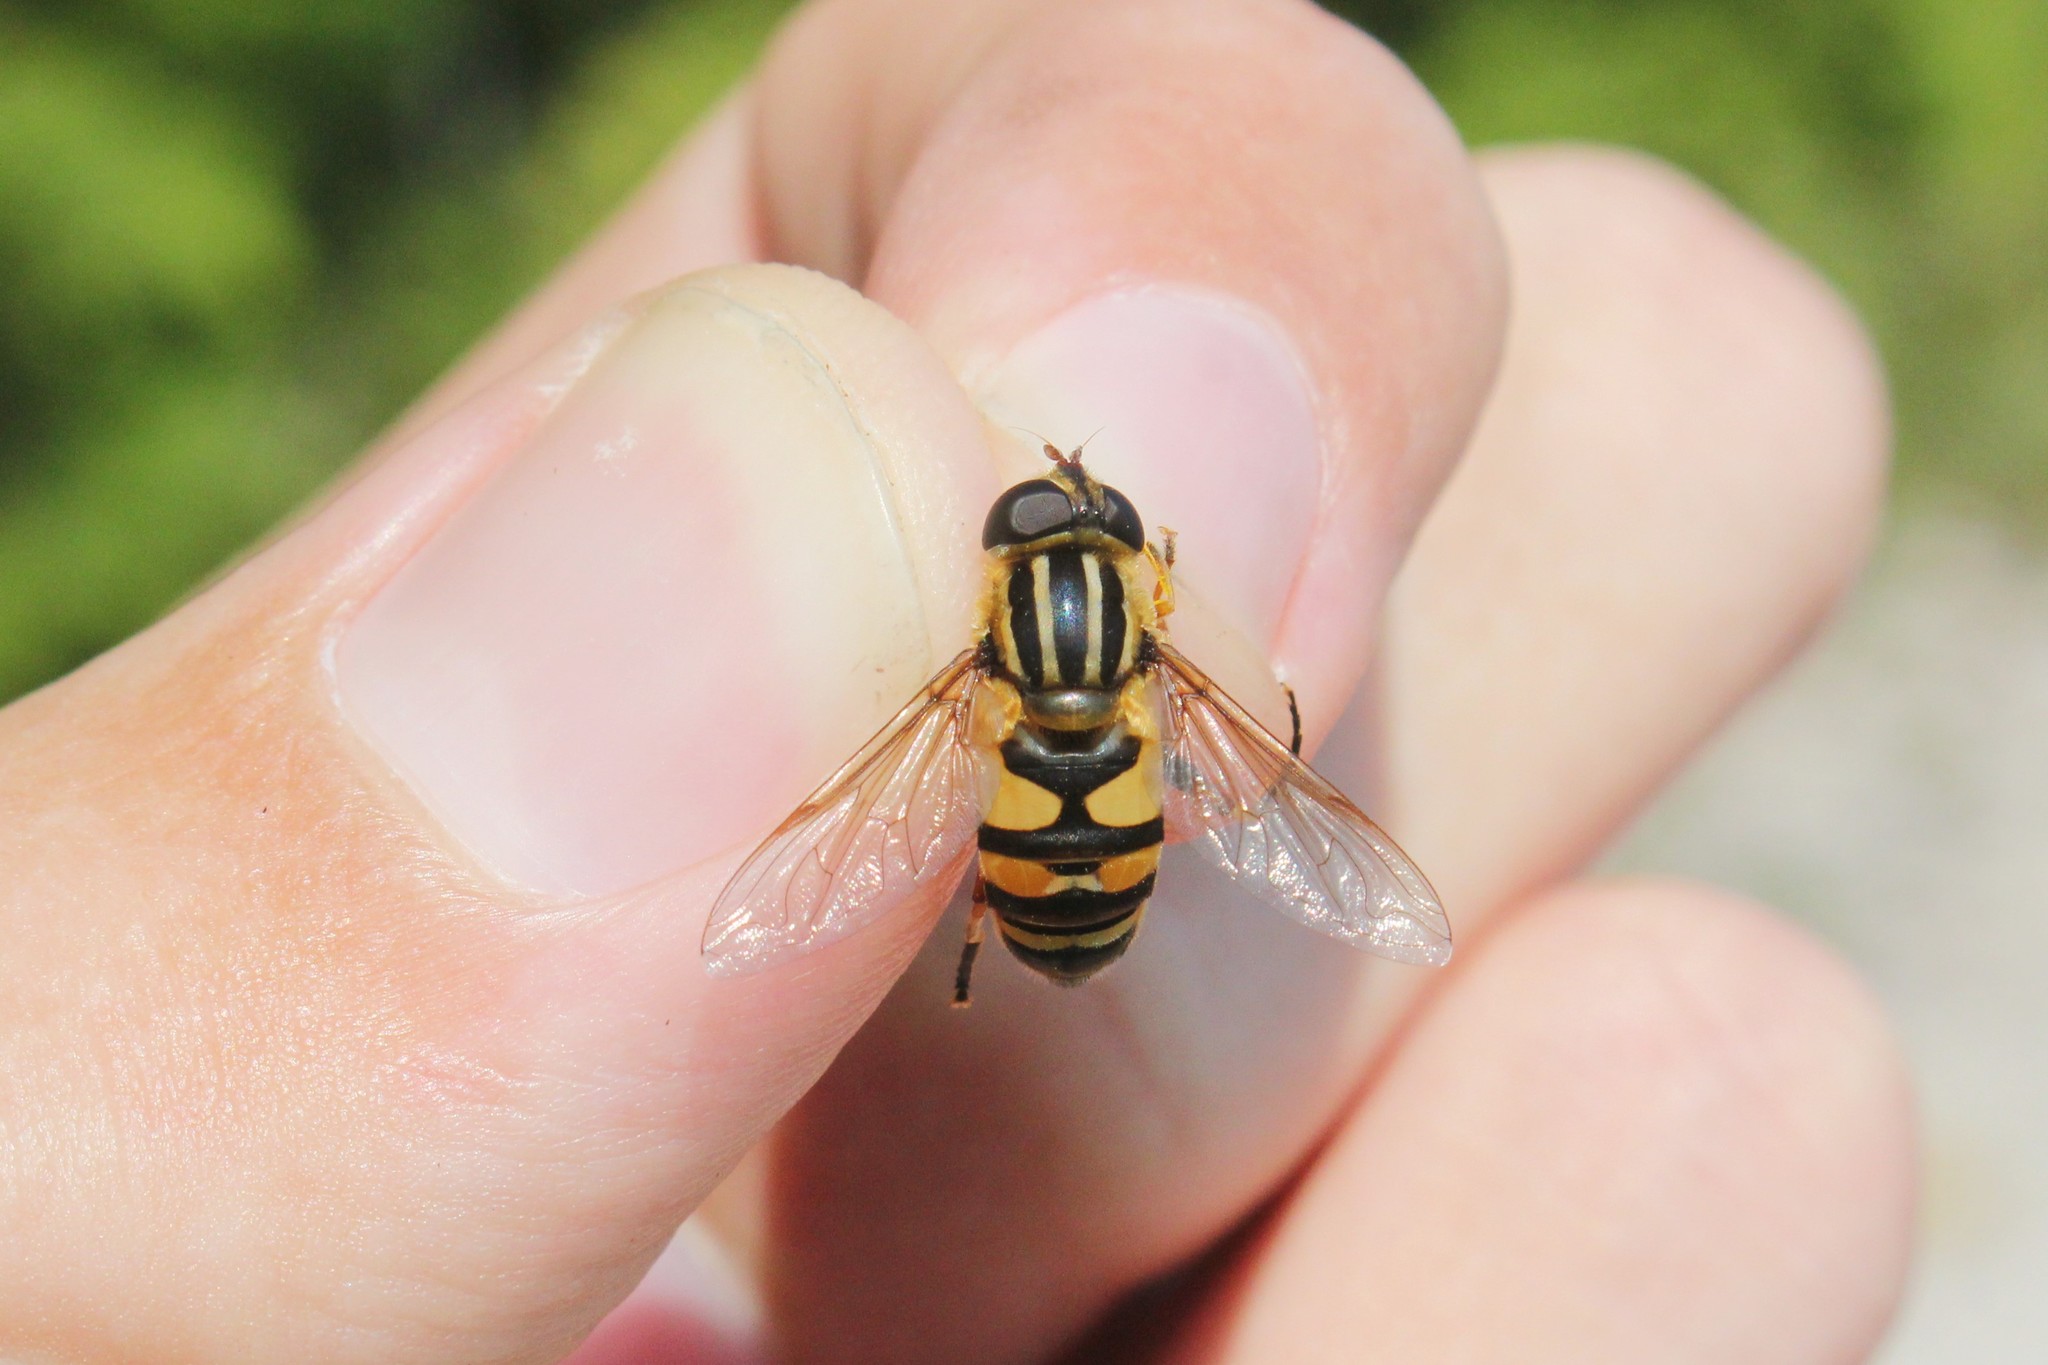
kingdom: Animalia
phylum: Arthropoda
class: Insecta
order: Diptera
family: Syrphidae
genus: Helophilus
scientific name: Helophilus fasciatus
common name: Narrow-headed marsh fly
